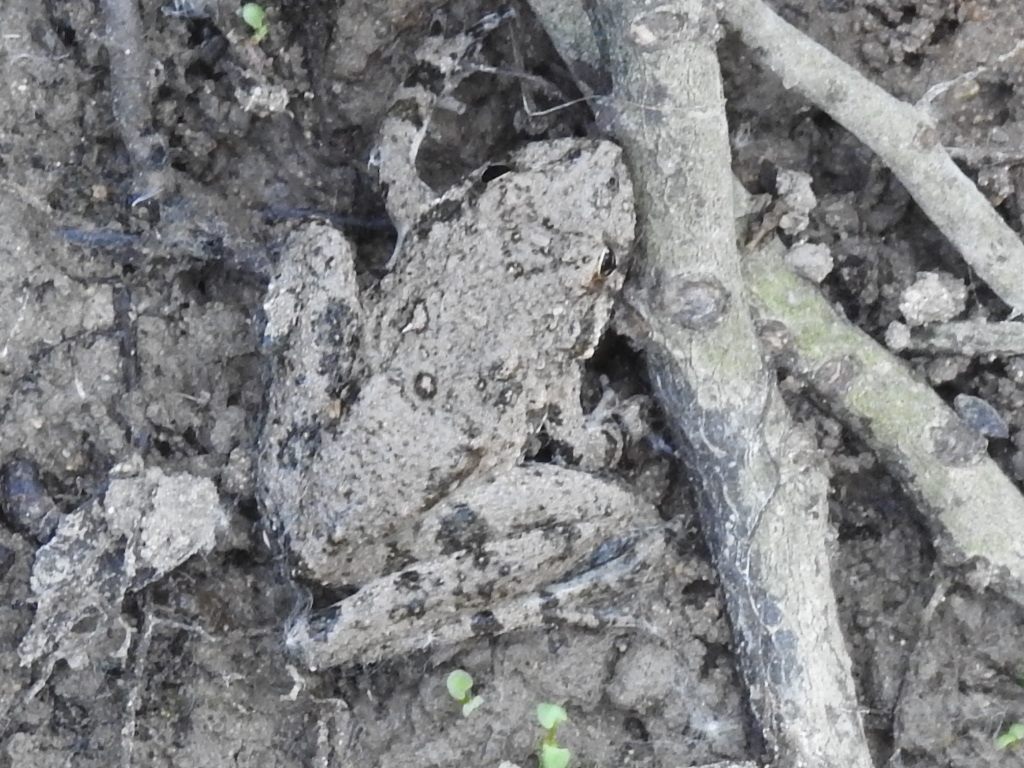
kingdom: Animalia
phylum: Chordata
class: Amphibia
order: Anura
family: Hylidae
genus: Acris
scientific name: Acris blanchardi
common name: Blanchard's cricket frog
